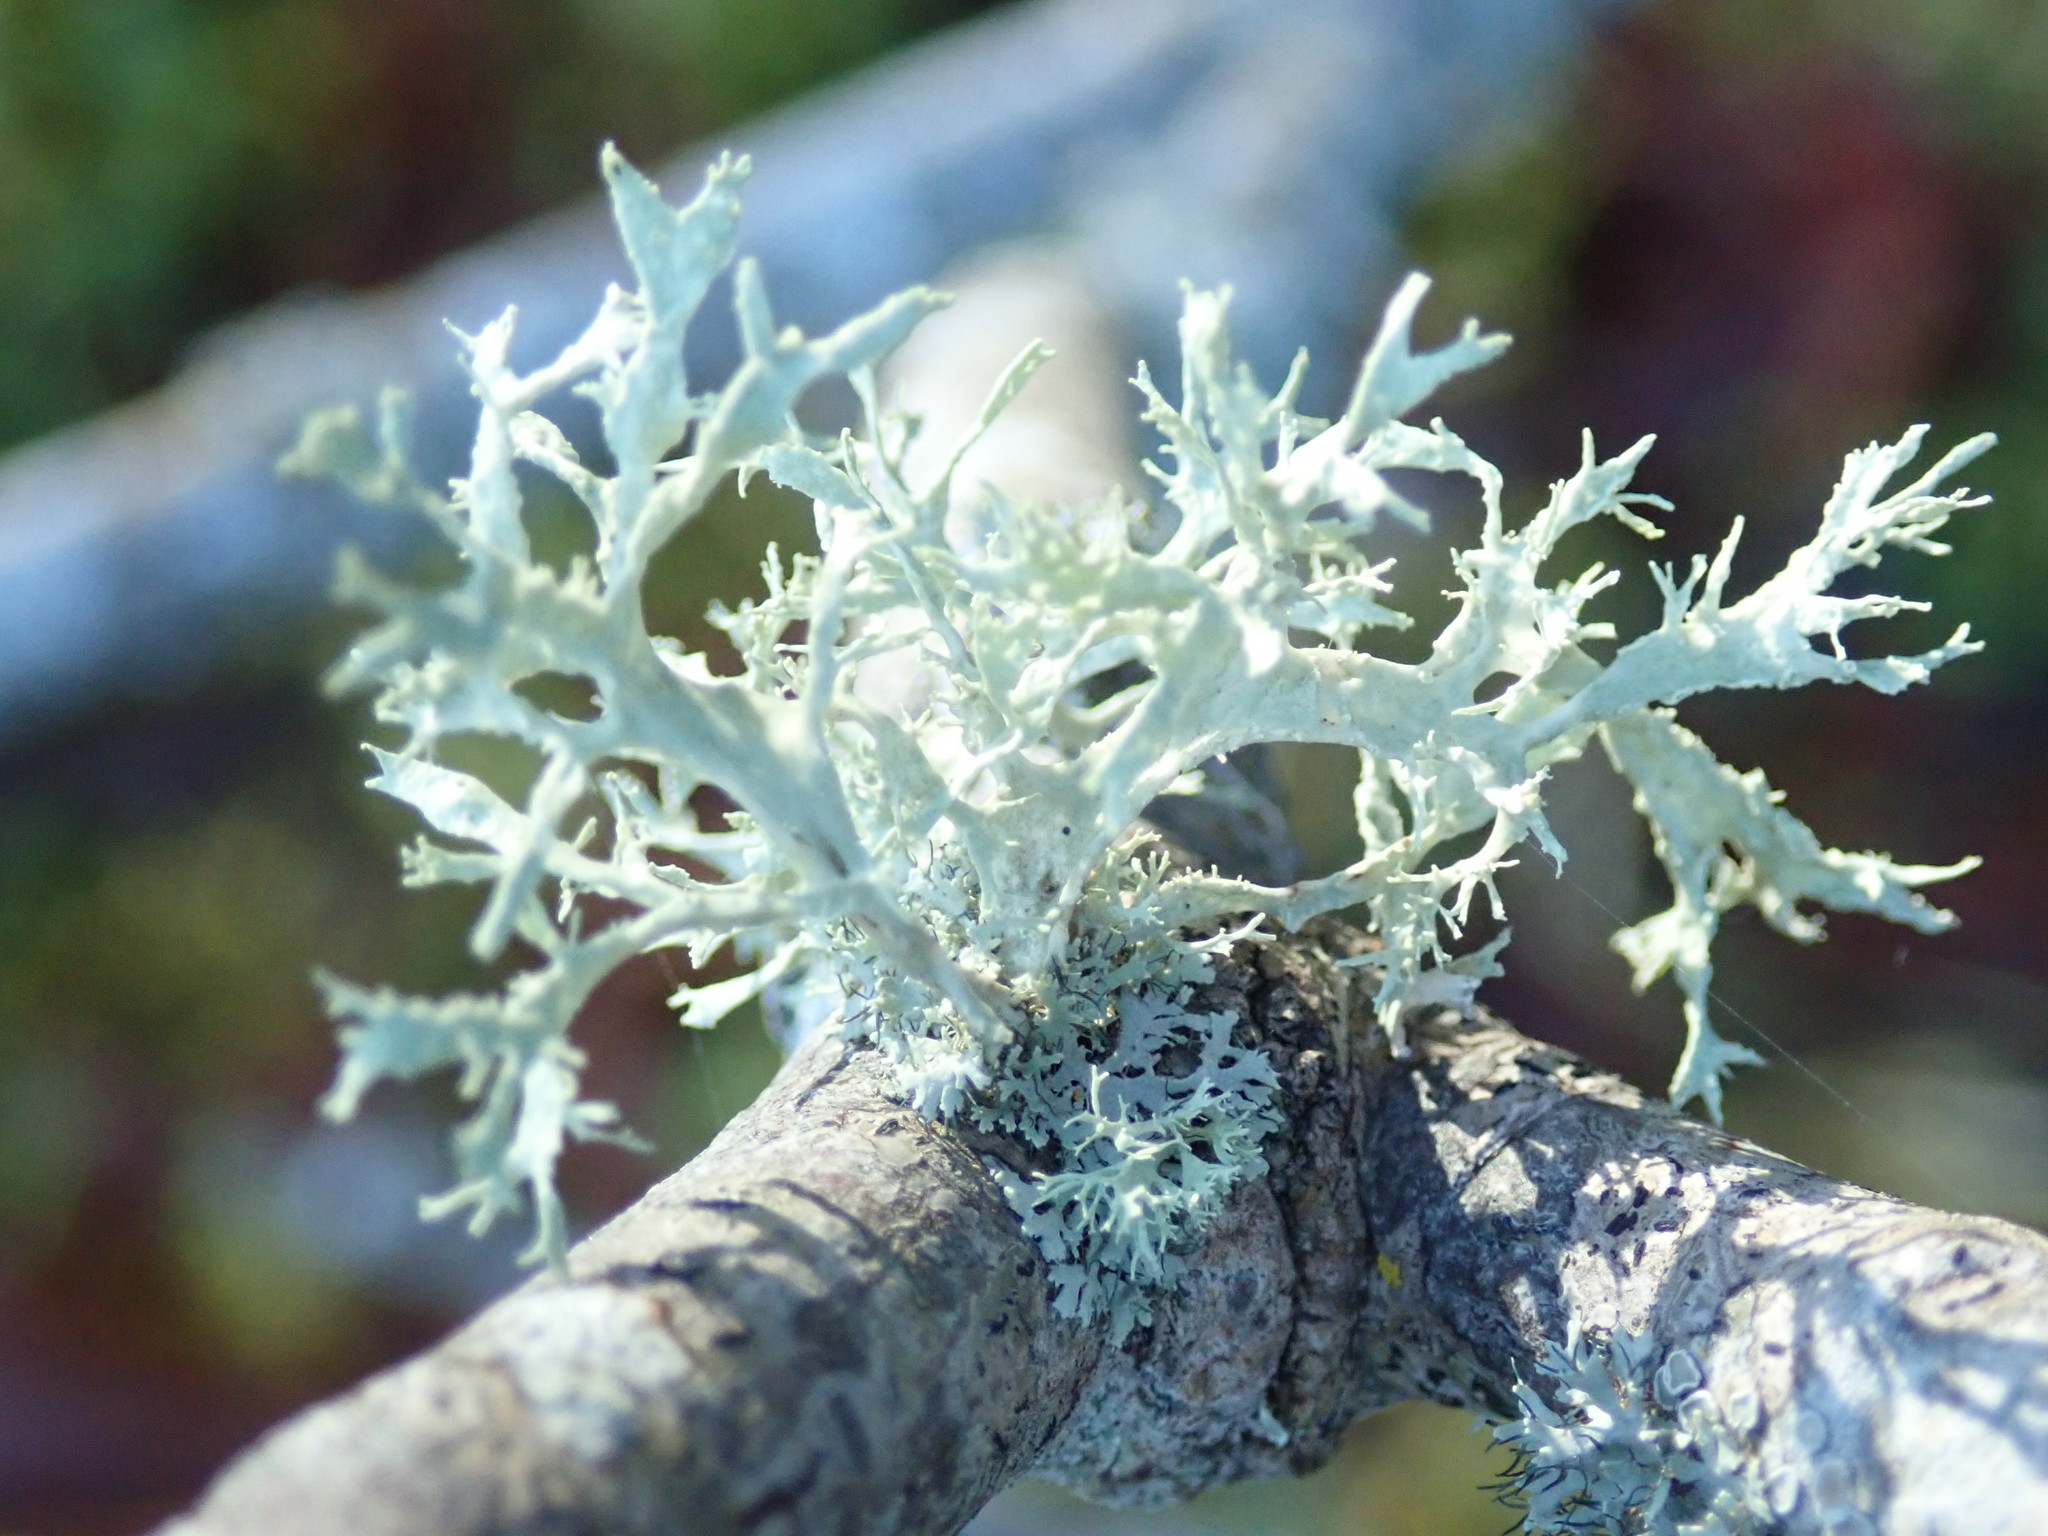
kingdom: Fungi
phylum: Ascomycota
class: Lecanoromycetes
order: Lecanorales
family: Ramalinaceae
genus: Ramalina
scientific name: Ramalina farinacea
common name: Farinose cartilage lichen
